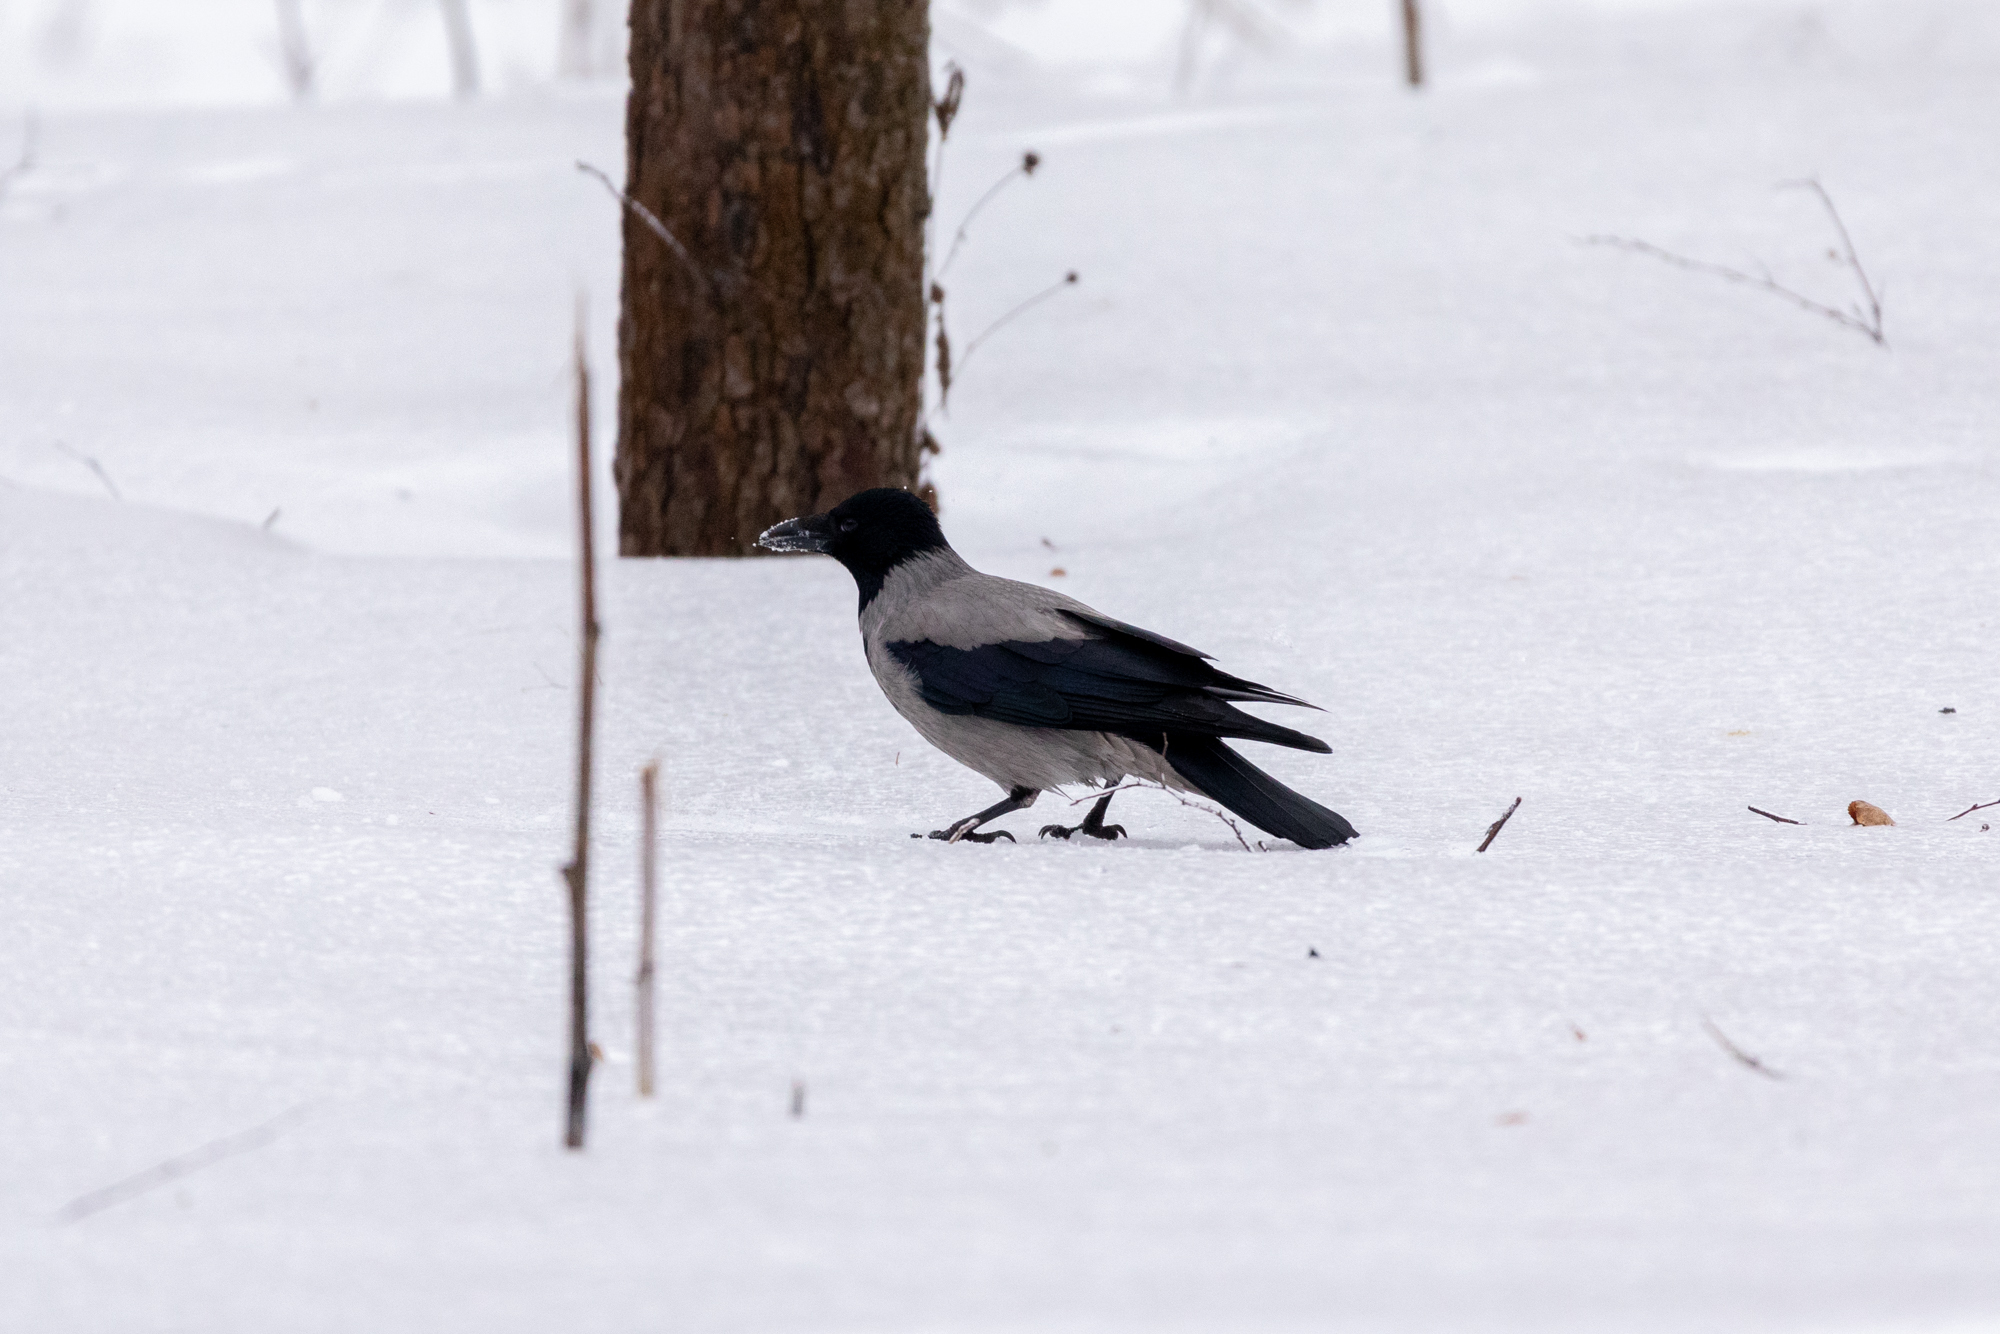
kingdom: Animalia
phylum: Chordata
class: Aves
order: Passeriformes
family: Corvidae
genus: Corvus
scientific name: Corvus cornix
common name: Hooded crow
